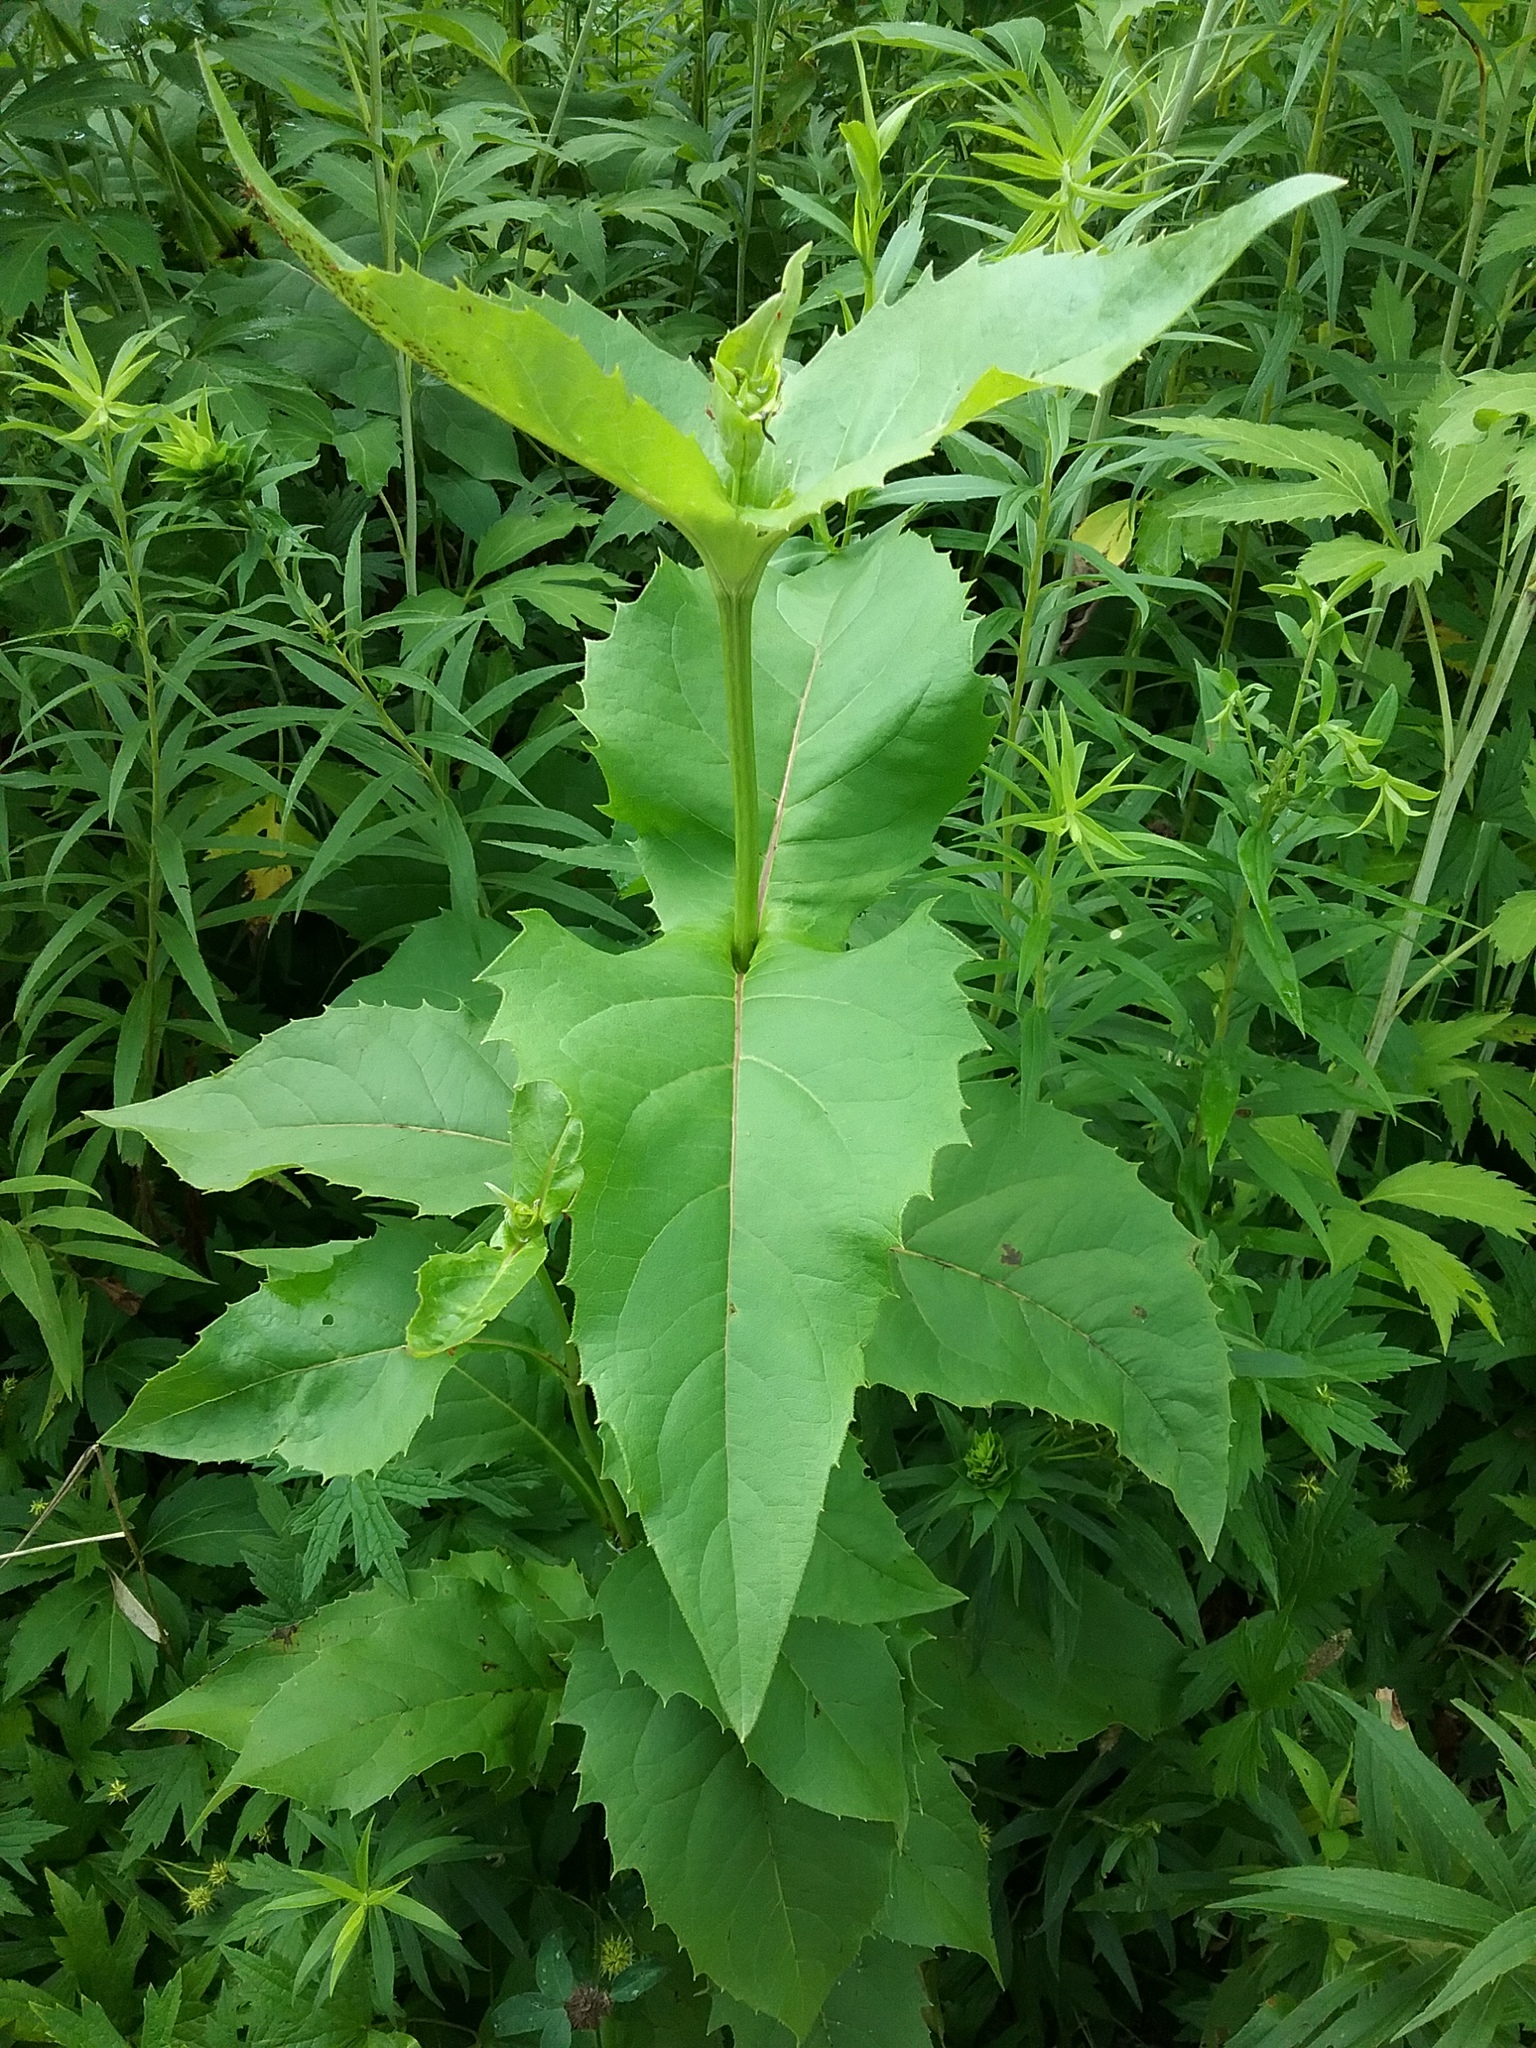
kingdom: Plantae
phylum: Tracheophyta
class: Magnoliopsida
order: Asterales
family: Asteraceae
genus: Silphium
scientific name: Silphium perfoliatum
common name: Cup-plant
